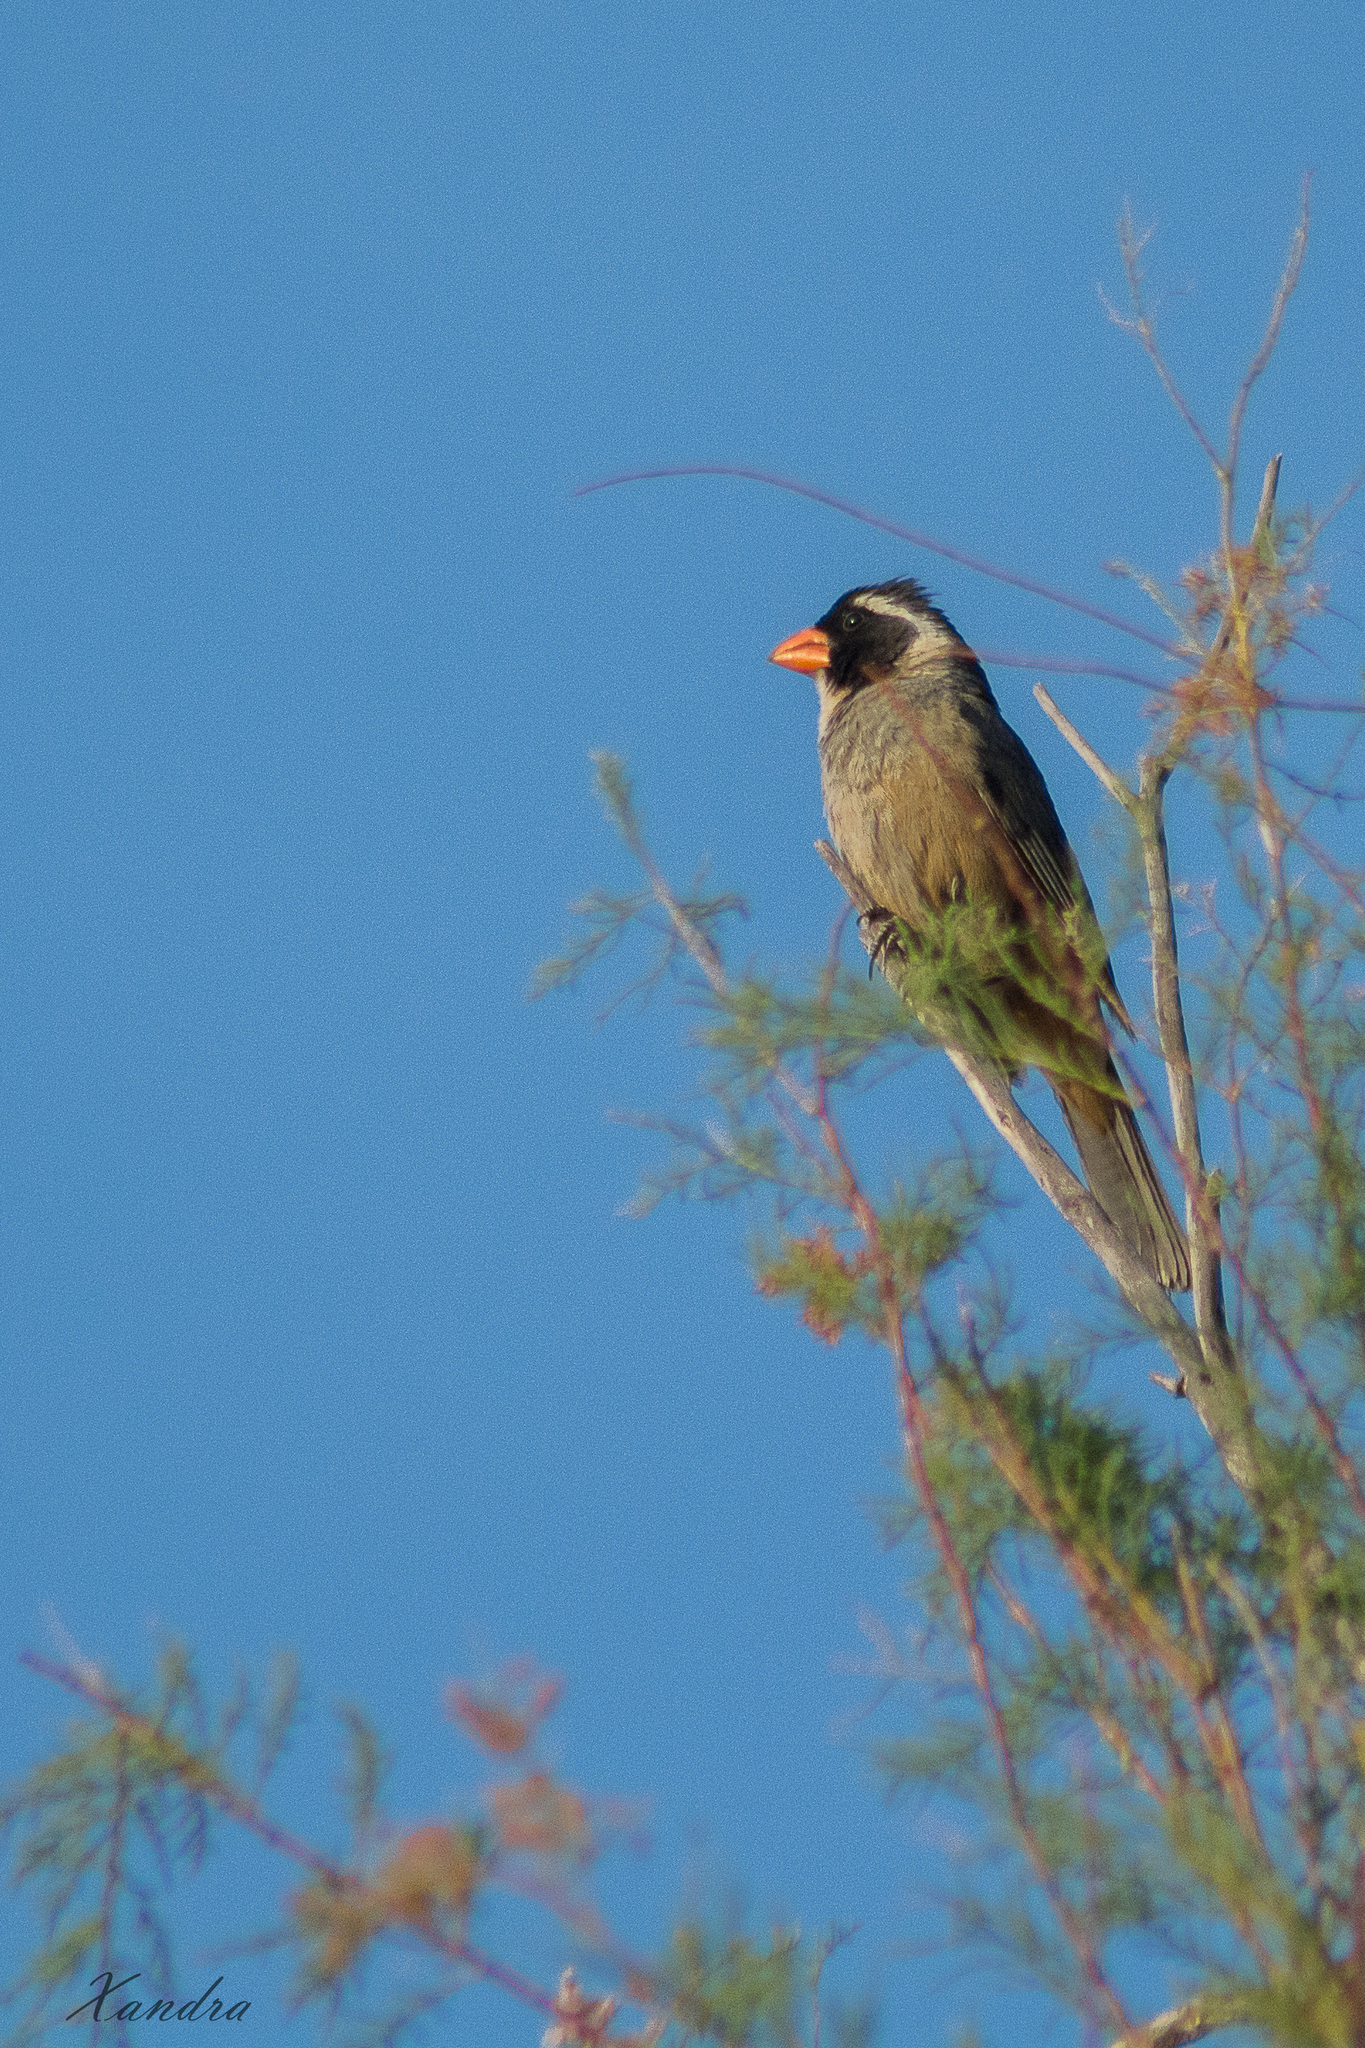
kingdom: Animalia
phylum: Chordata
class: Aves
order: Passeriformes
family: Thraupidae
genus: Saltator
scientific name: Saltator aurantiirostris
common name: Golden-billed saltator
